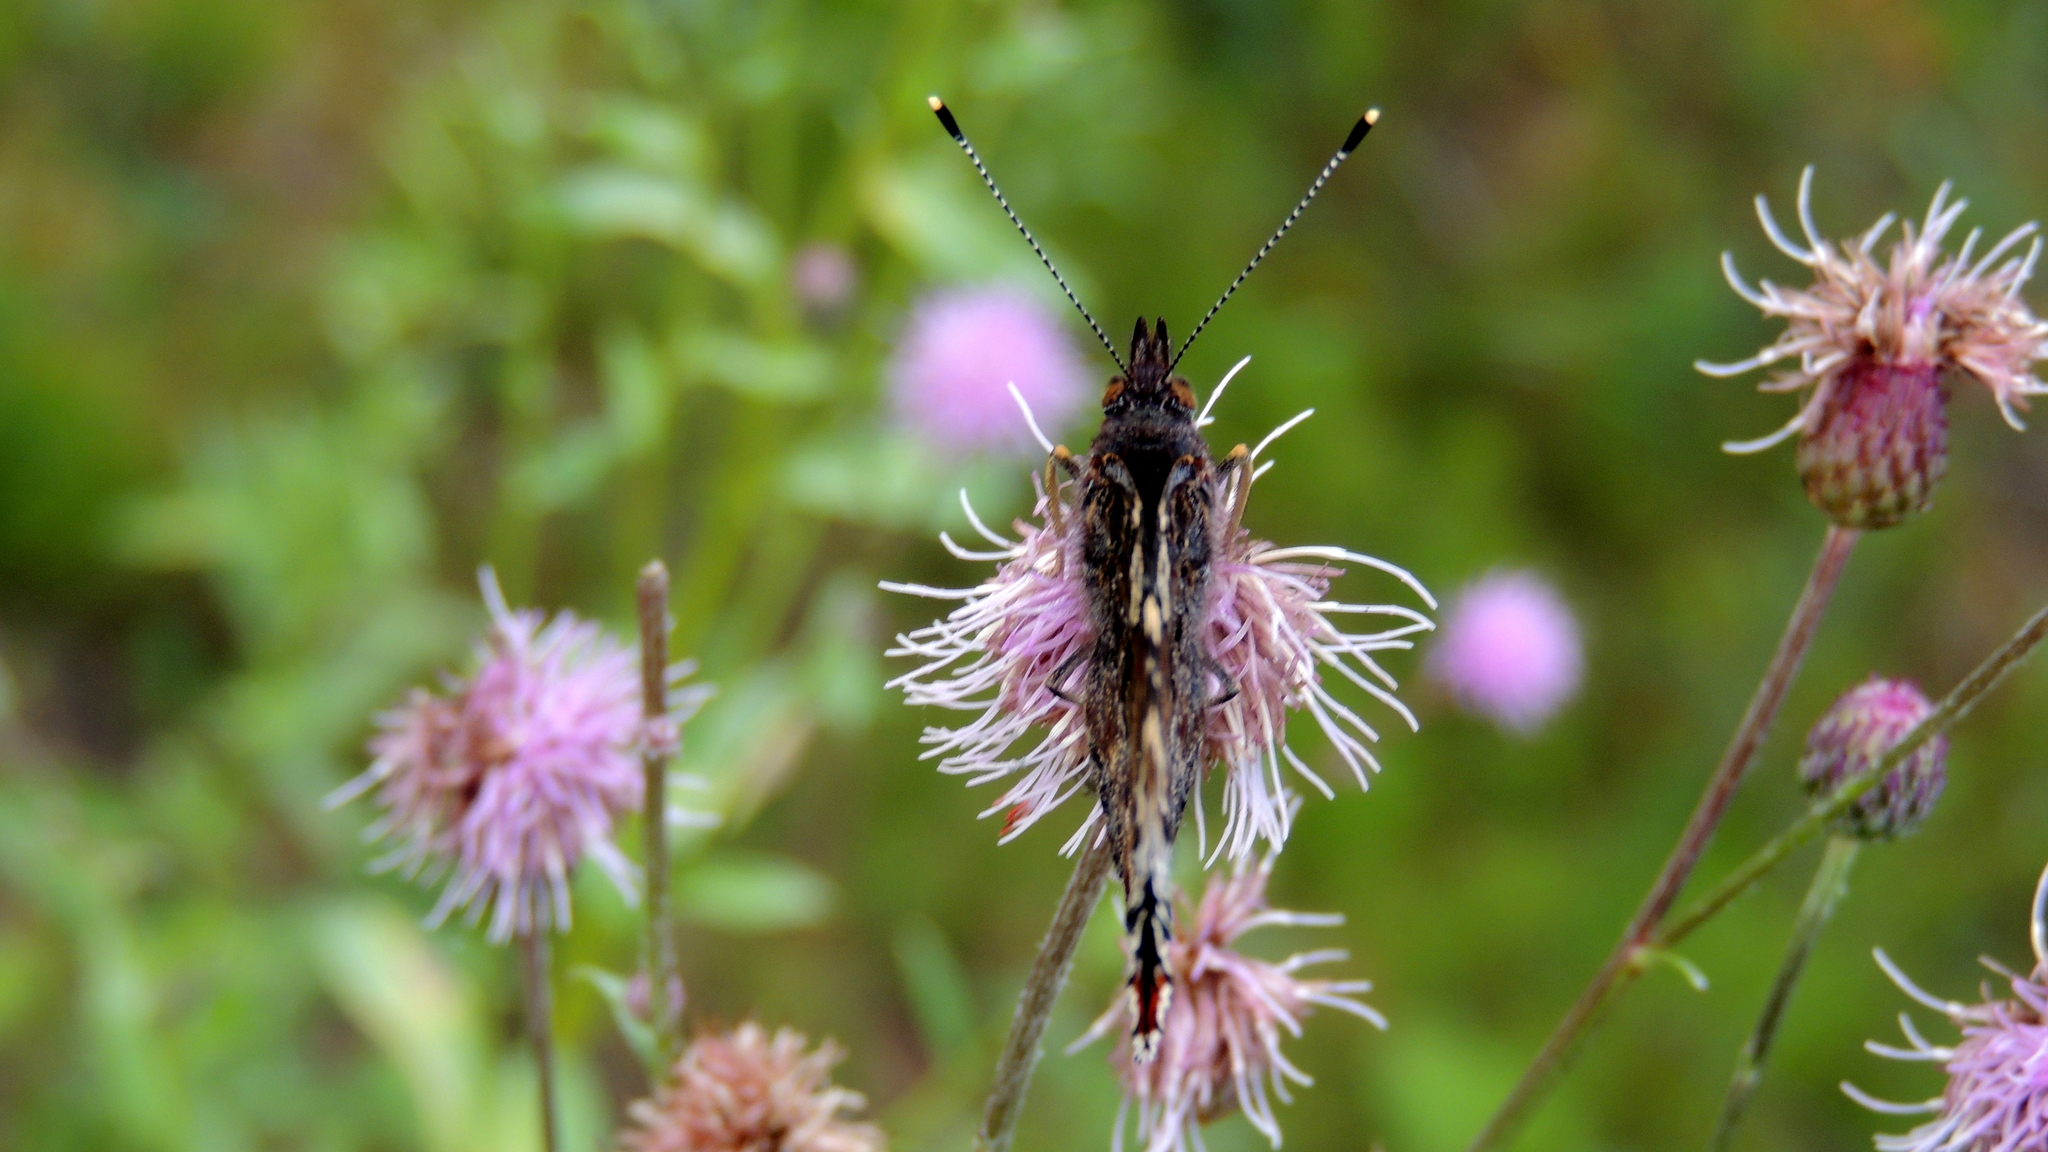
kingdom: Animalia
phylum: Arthropoda
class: Insecta
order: Lepidoptera
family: Nymphalidae
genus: Vanessa
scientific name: Vanessa atalanta
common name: Red admiral
